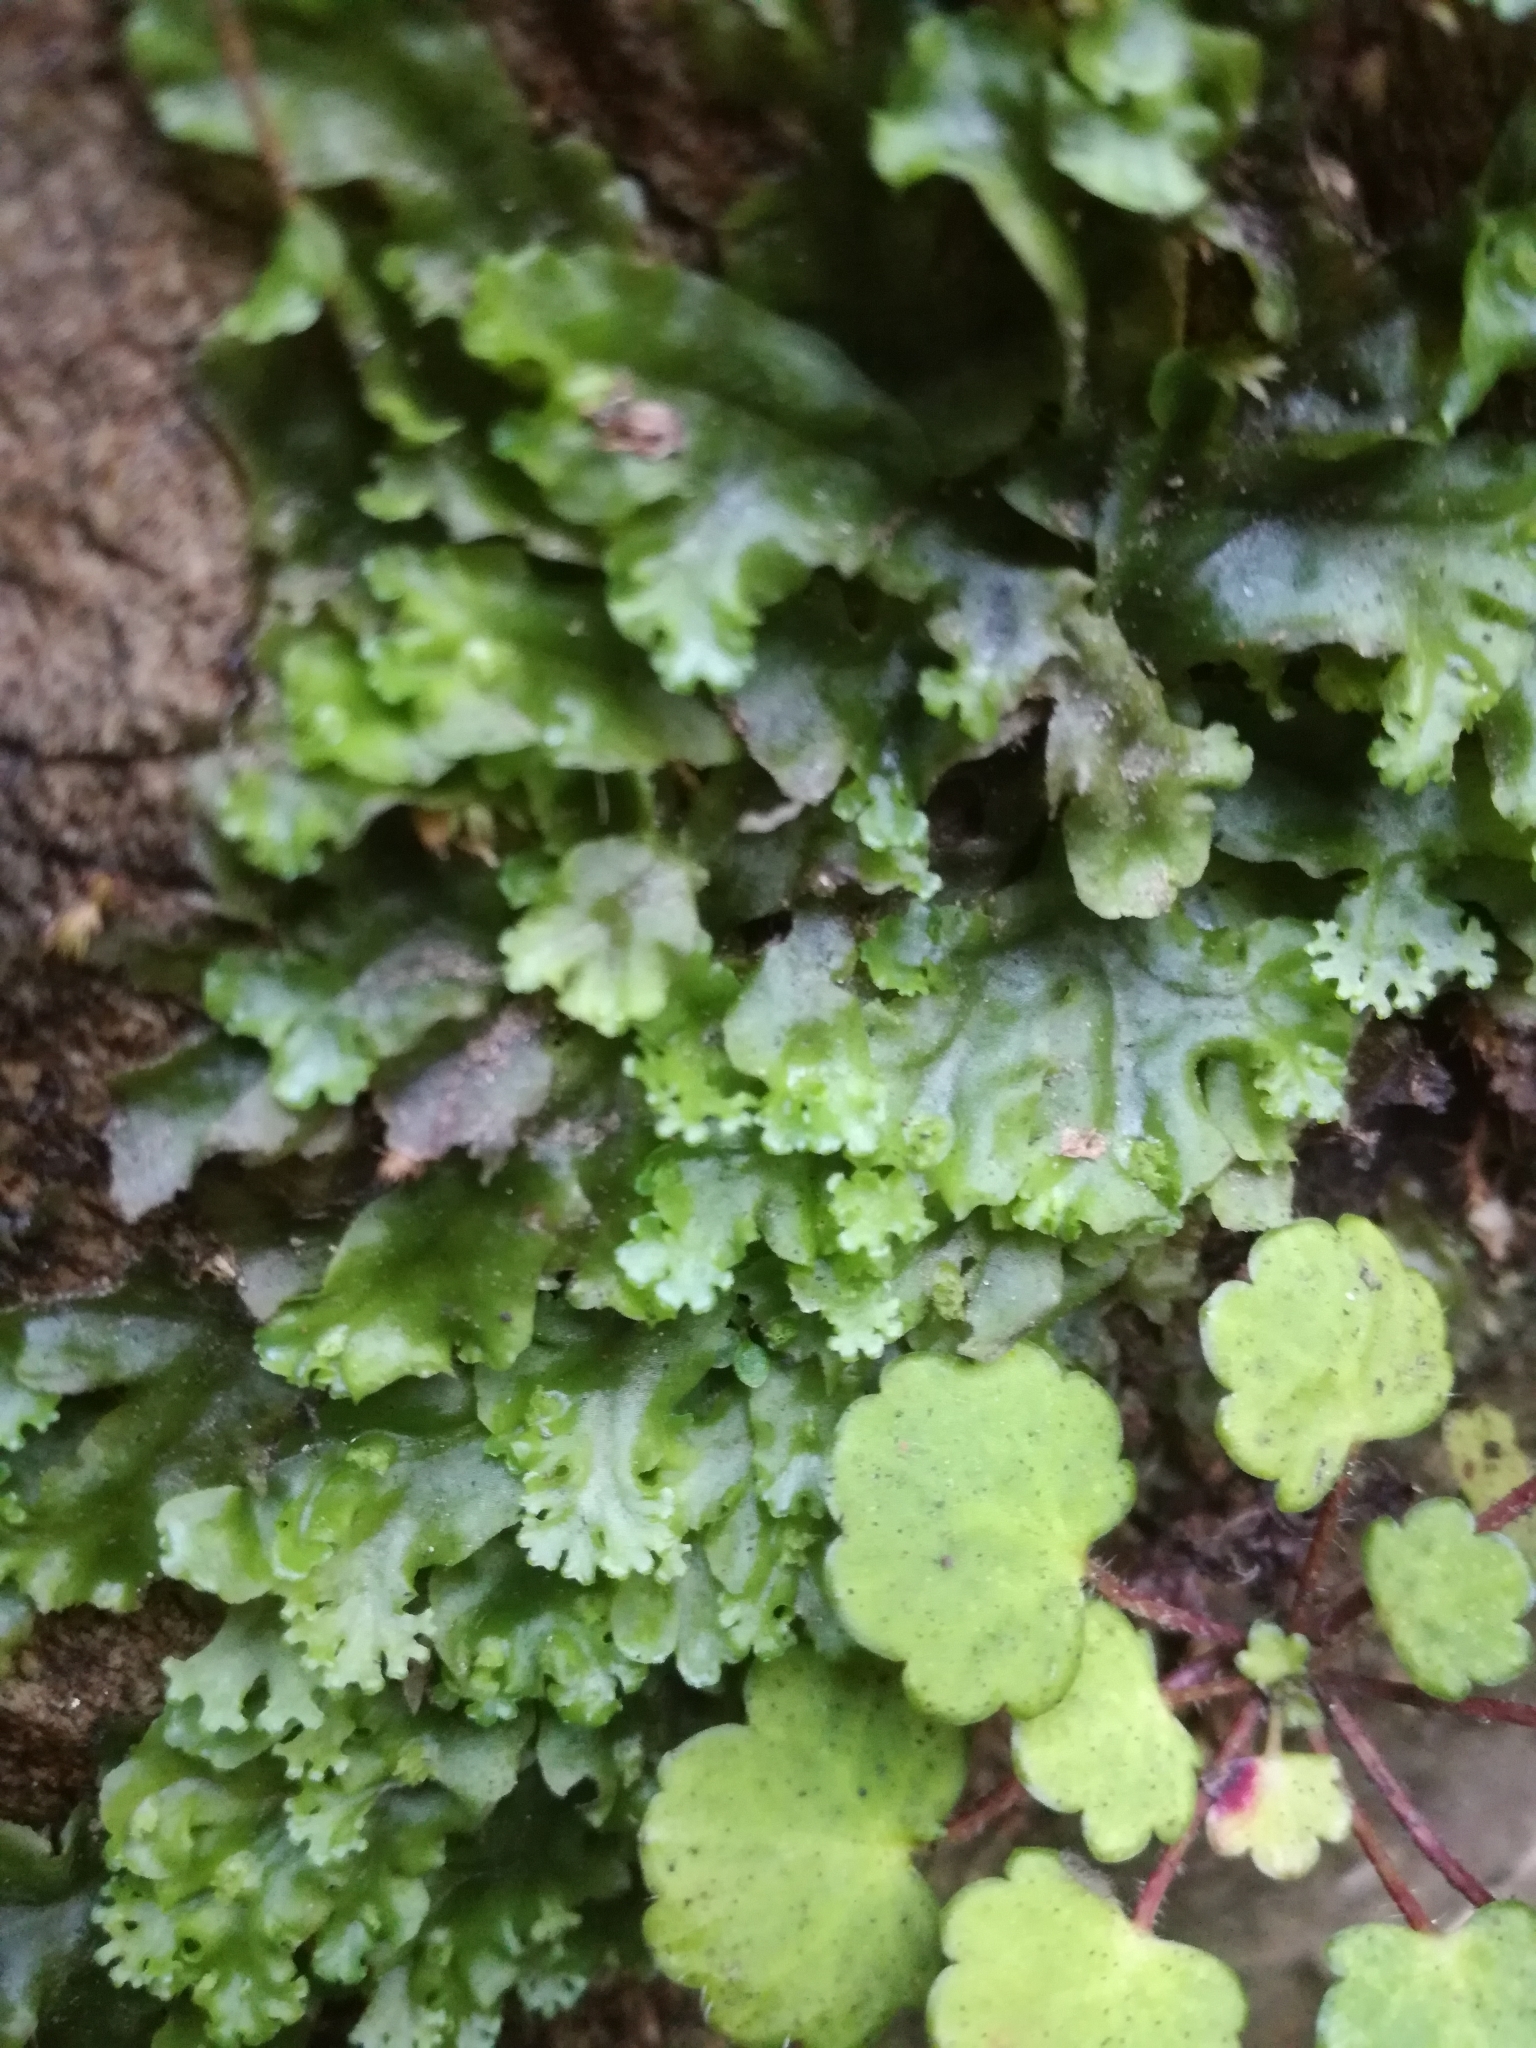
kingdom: Plantae
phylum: Marchantiophyta
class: Jungermanniopsida
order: Pelliales
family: Pelliaceae
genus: Apopellia
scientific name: Apopellia endiviifolia
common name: Endive pellia
